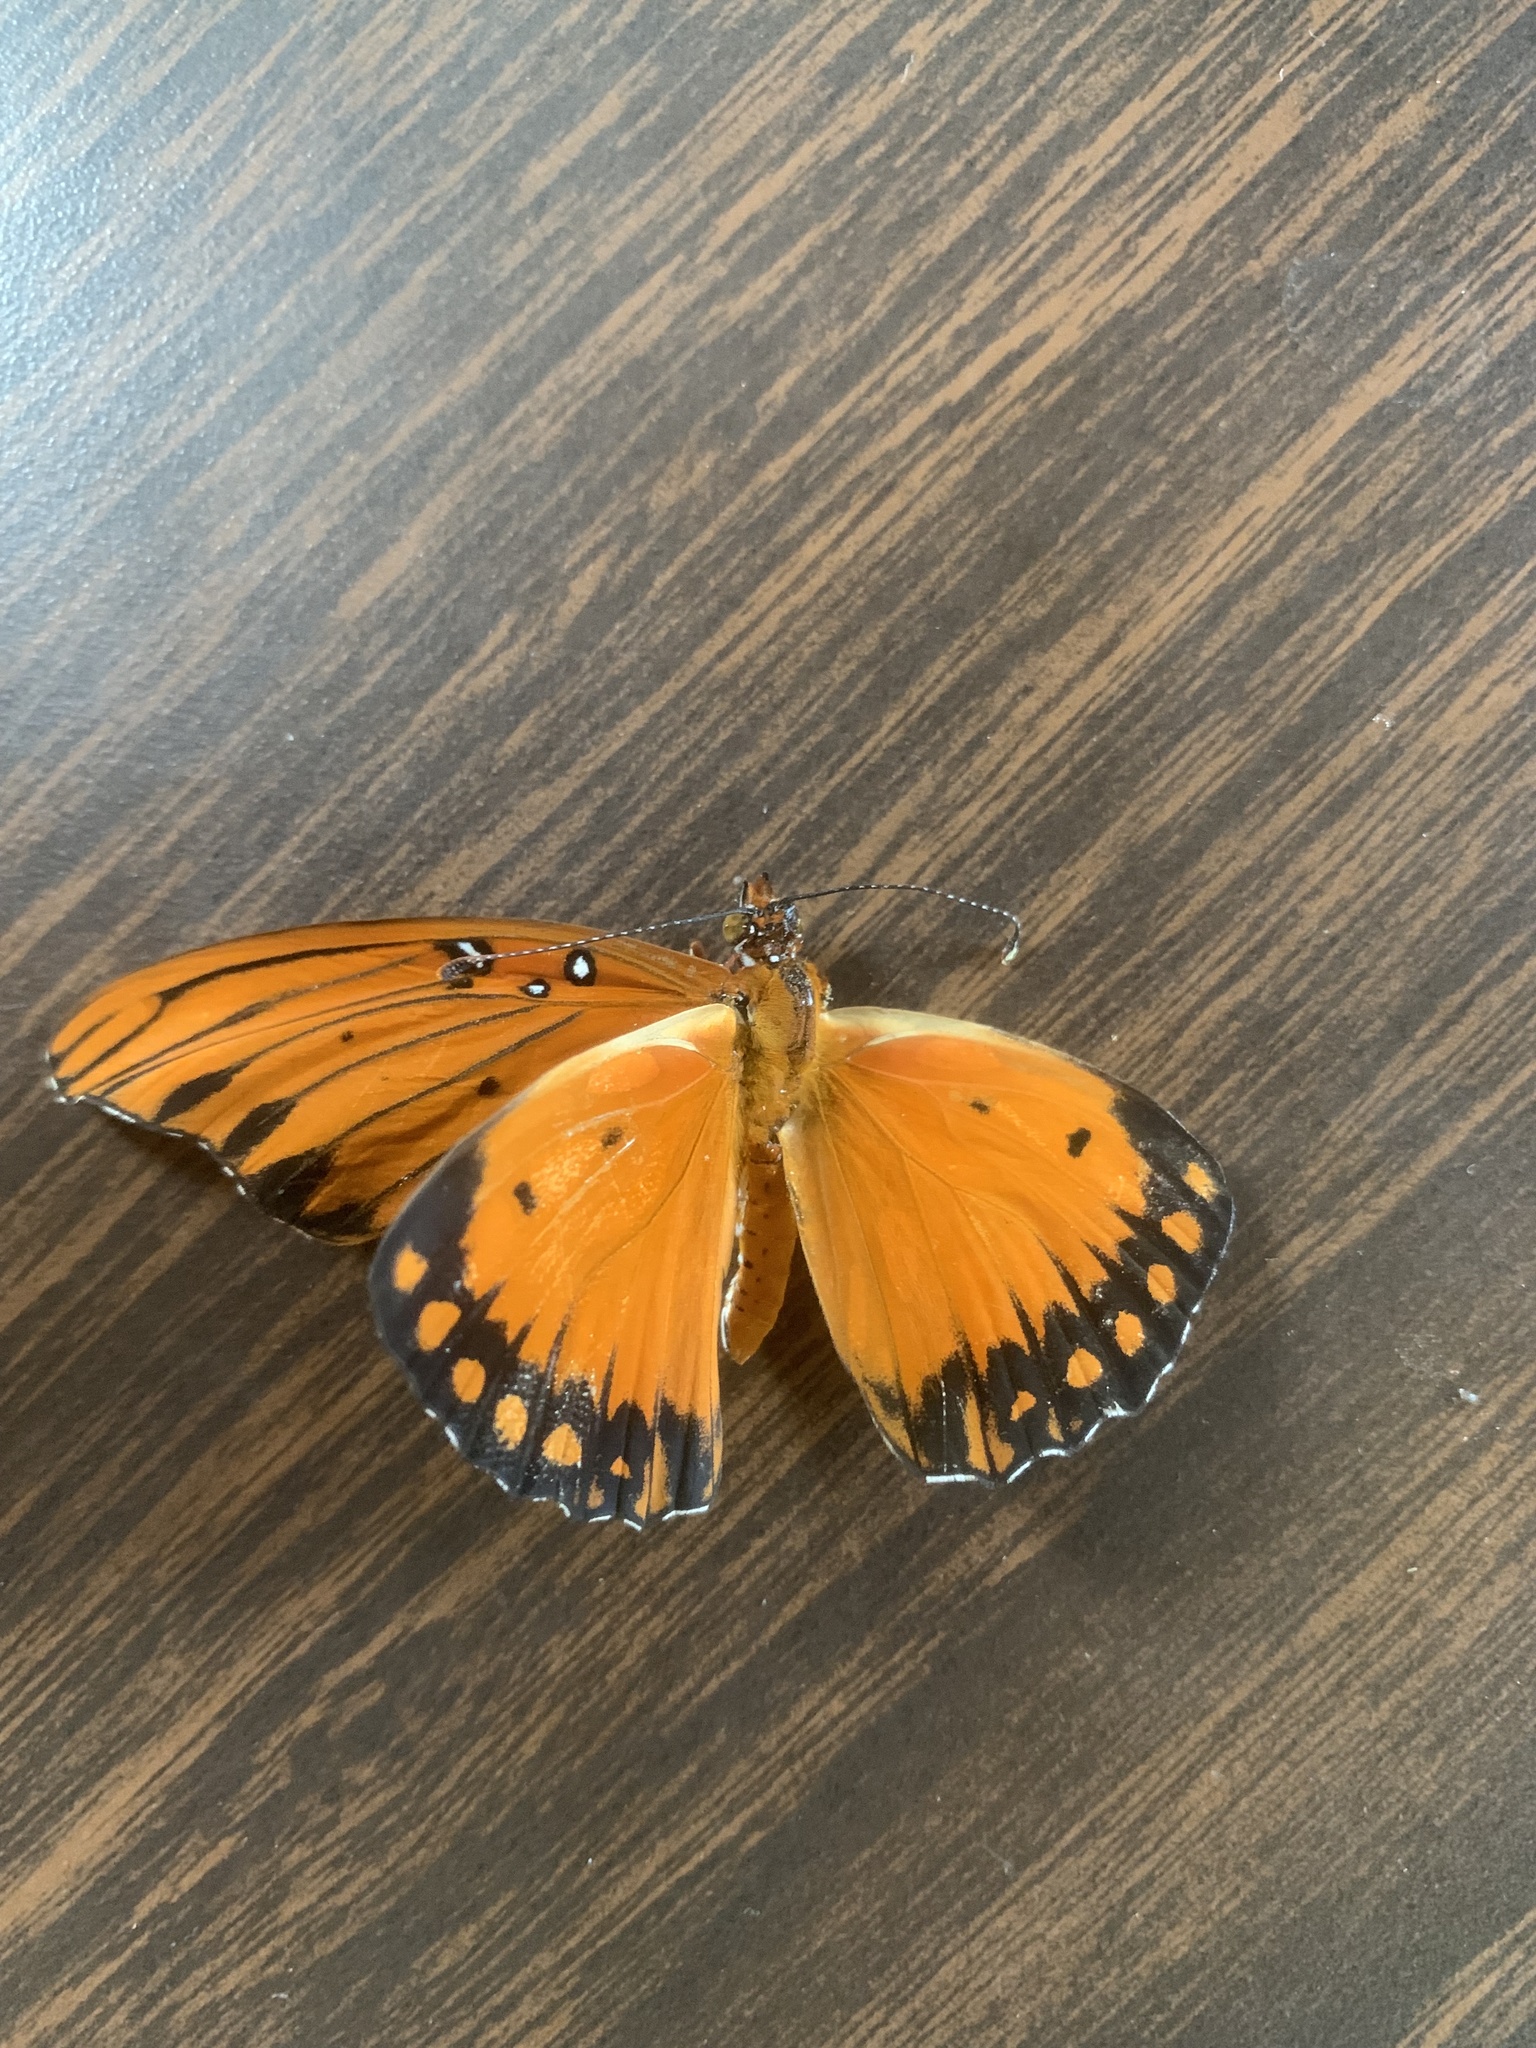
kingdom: Animalia
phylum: Arthropoda
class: Insecta
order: Lepidoptera
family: Nymphalidae
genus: Dione
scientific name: Dione vanillae
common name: Gulf fritillary
